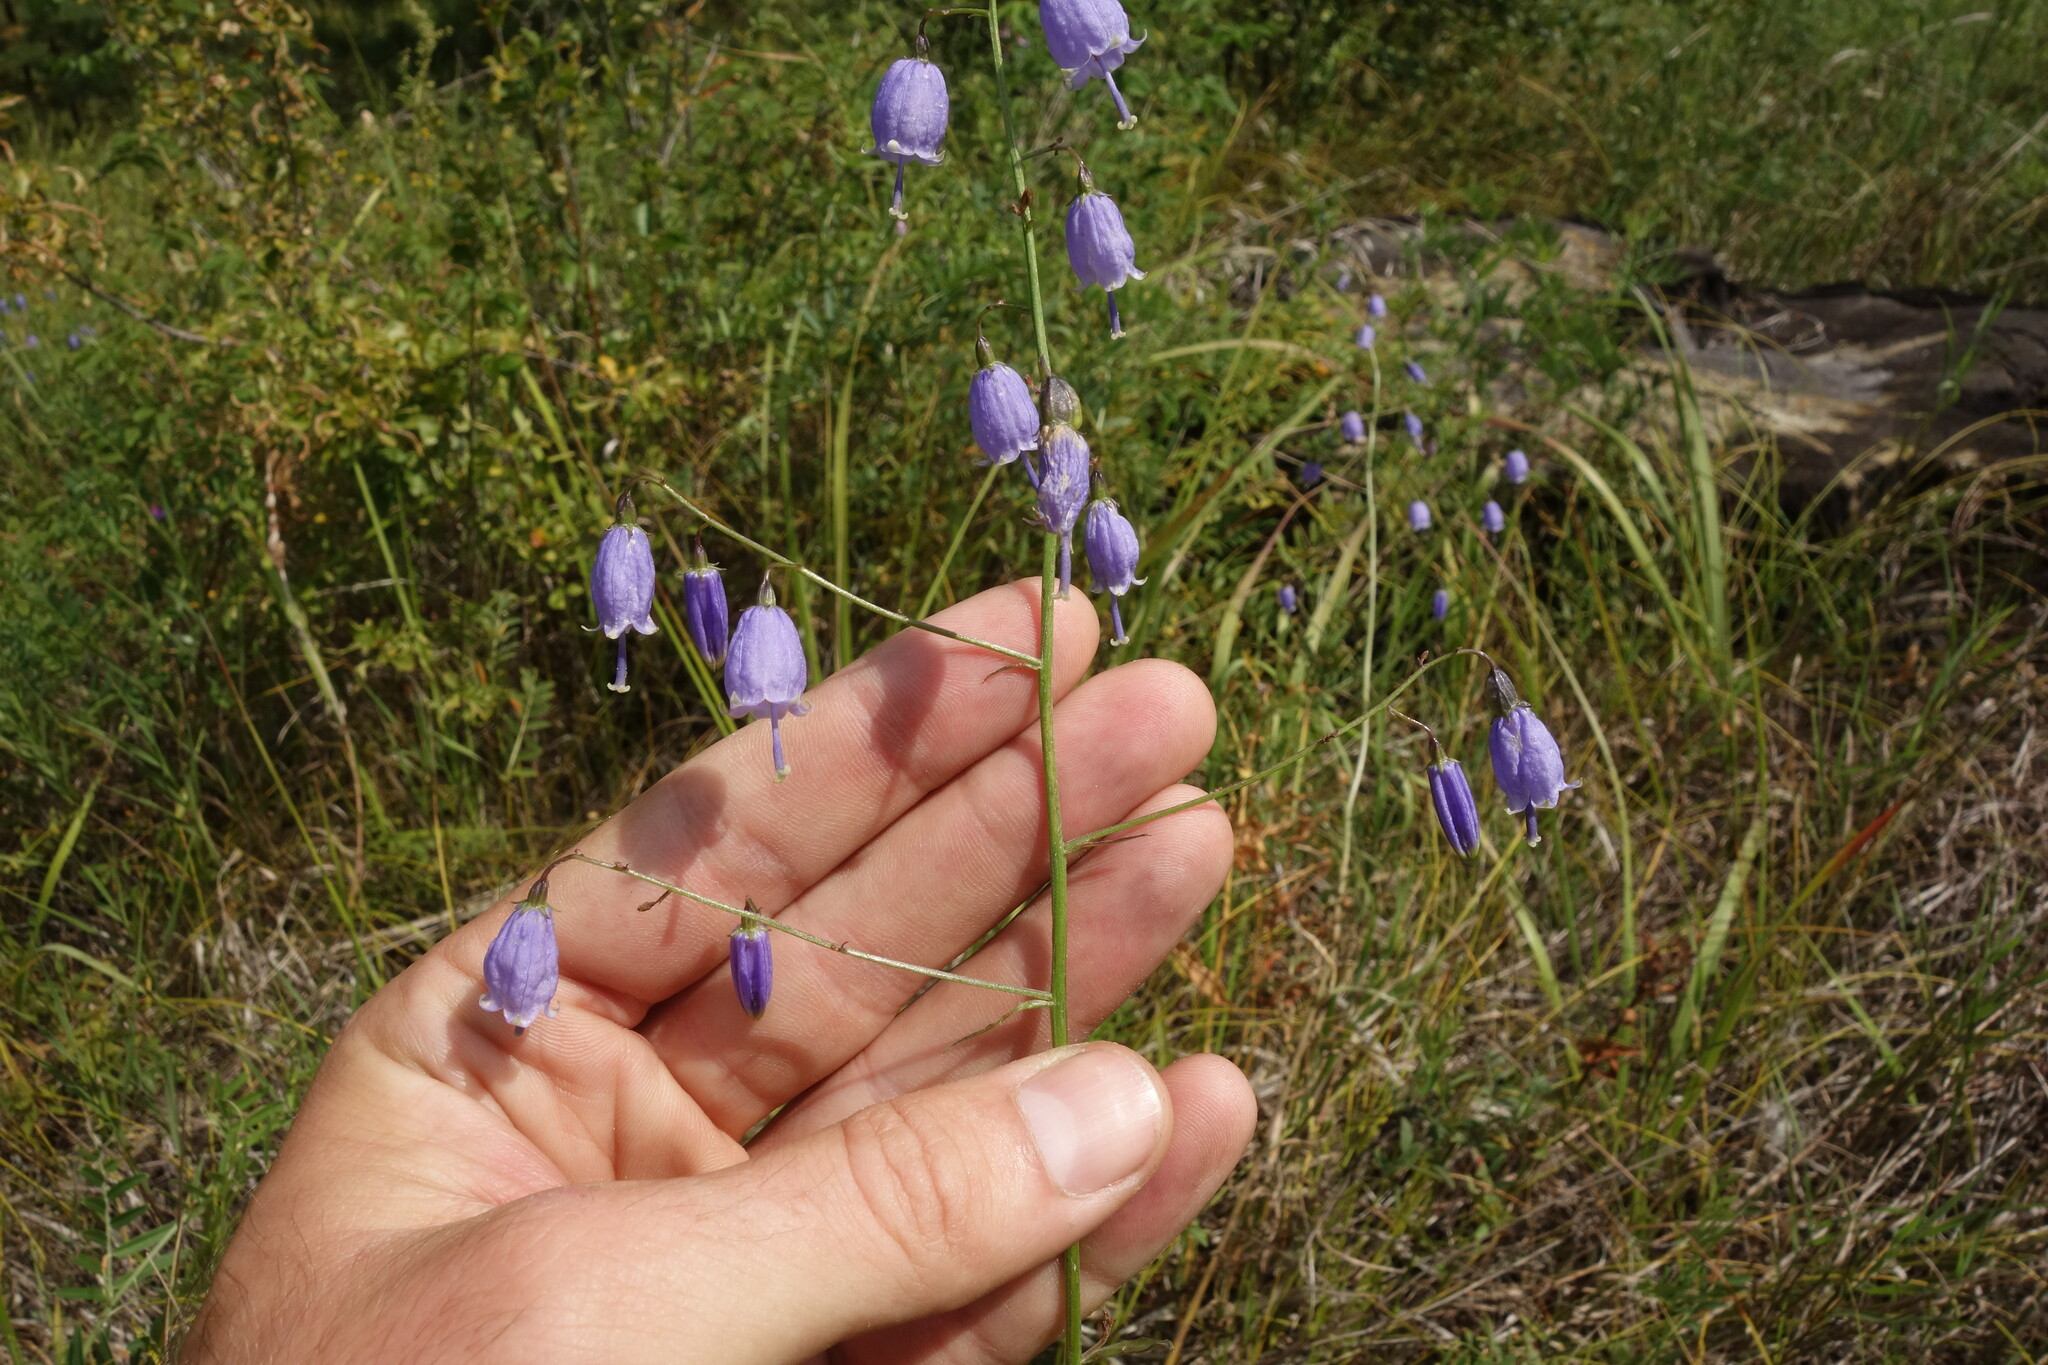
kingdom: Plantae
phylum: Tracheophyta
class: Magnoliopsida
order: Asterales
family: Campanulaceae
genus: Adenophora
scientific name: Adenophora stenanthina
